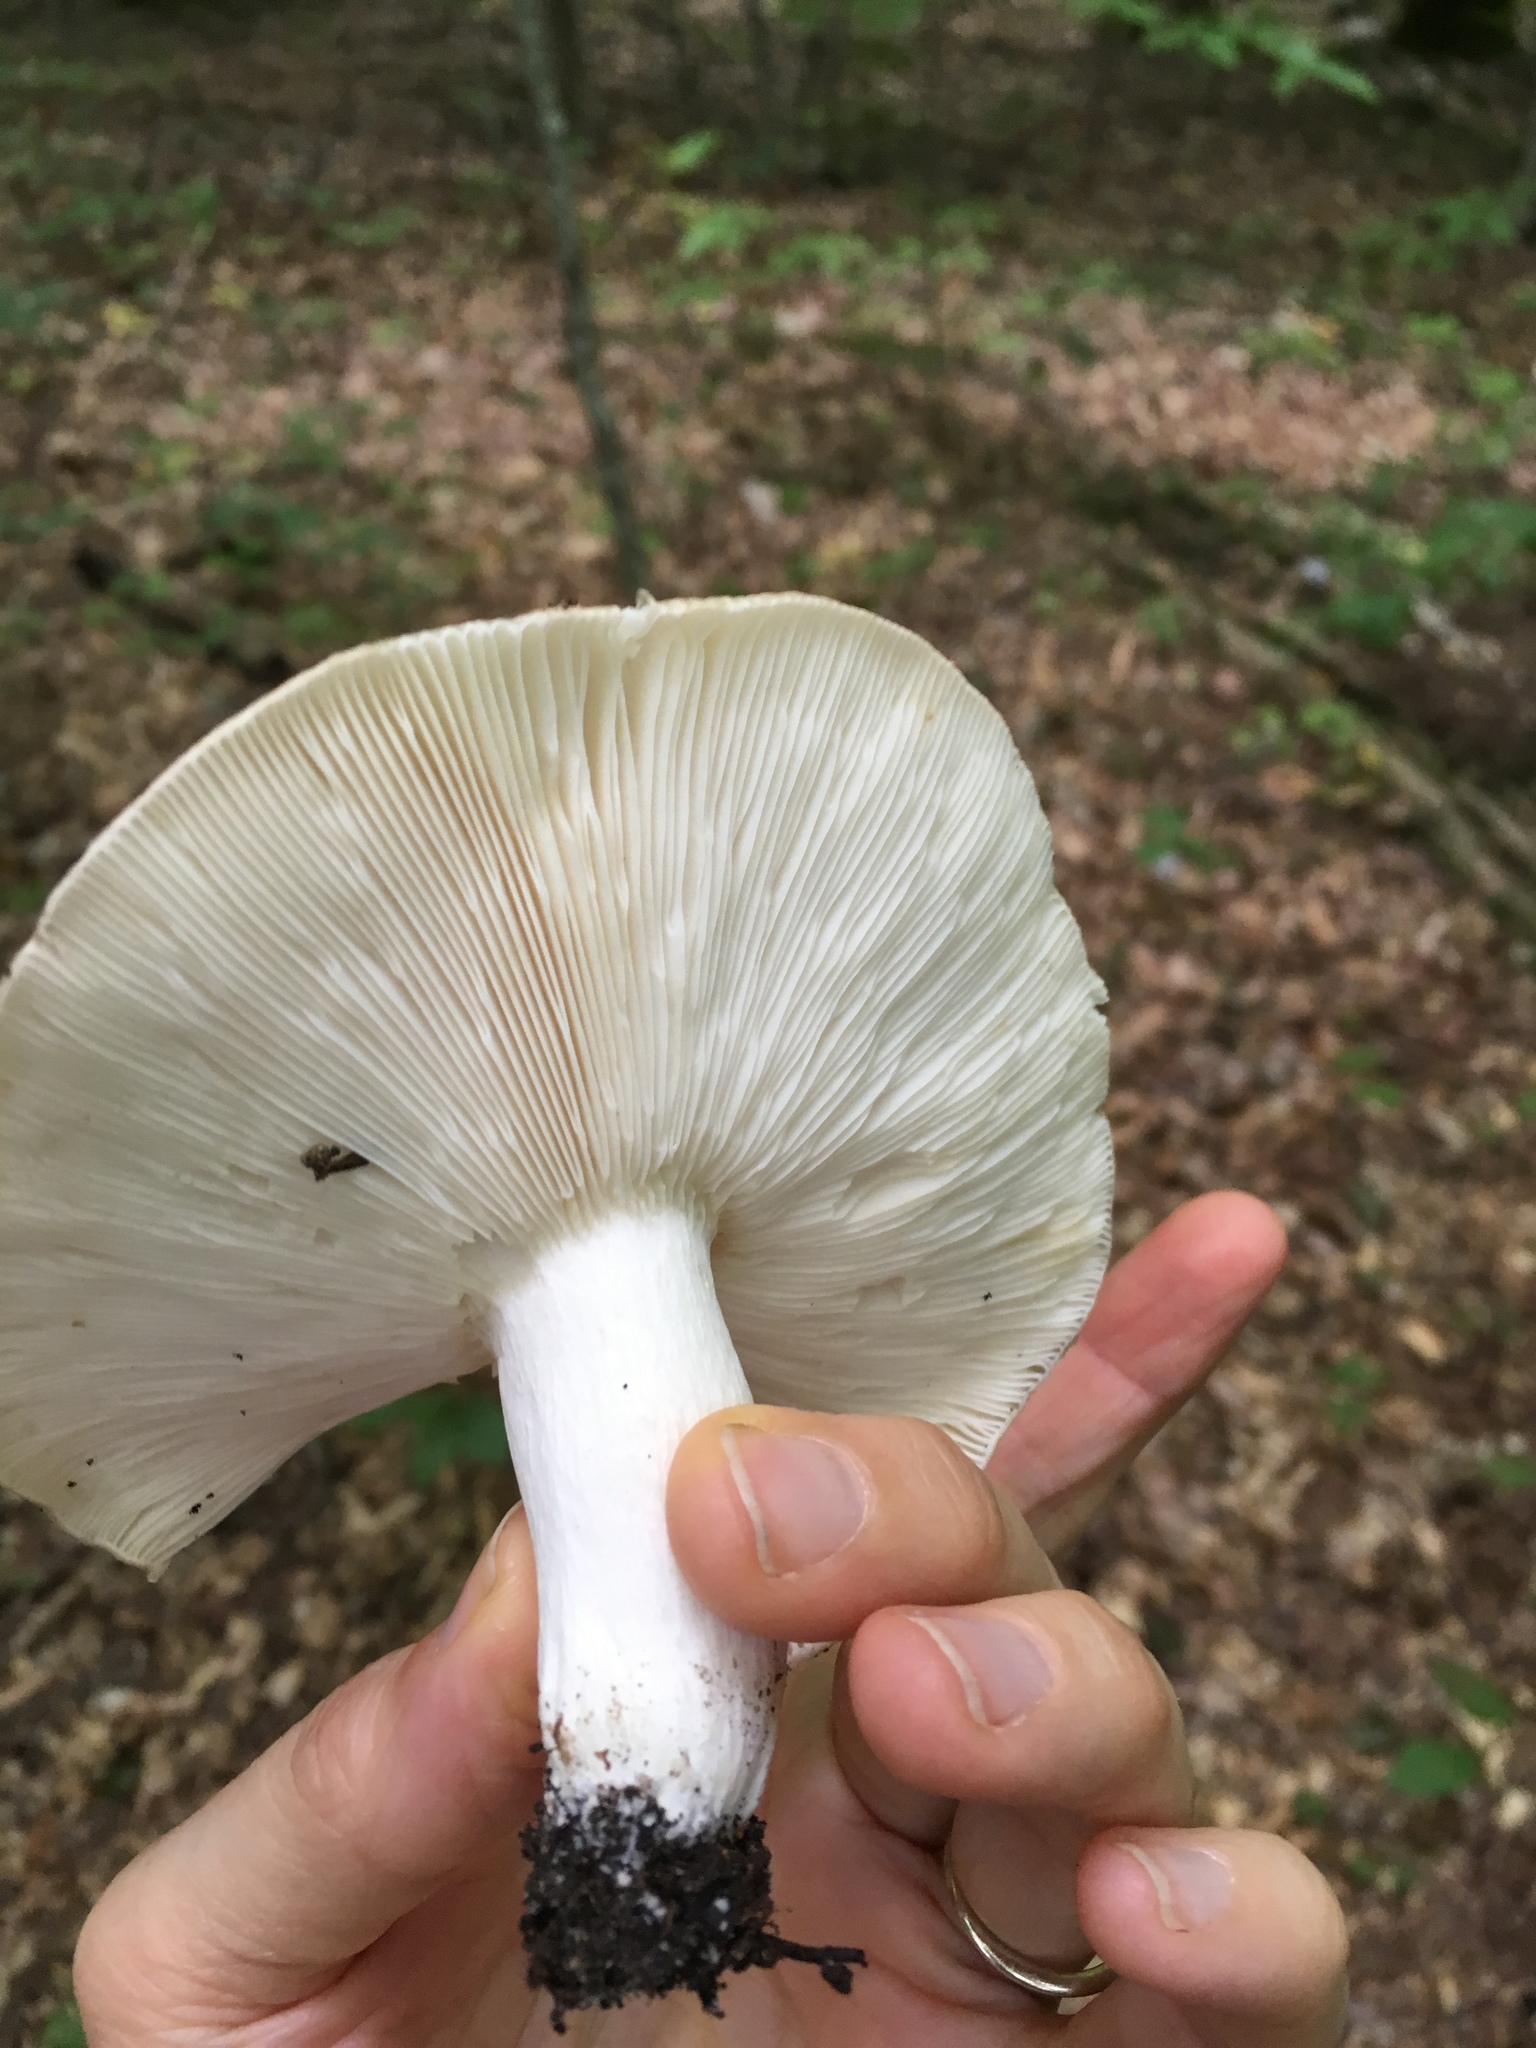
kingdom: Fungi
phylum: Basidiomycota
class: Agaricomycetes
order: Russulales
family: Russulaceae
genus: Russula
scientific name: Russula cyanoxantha
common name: Charcoal burner
